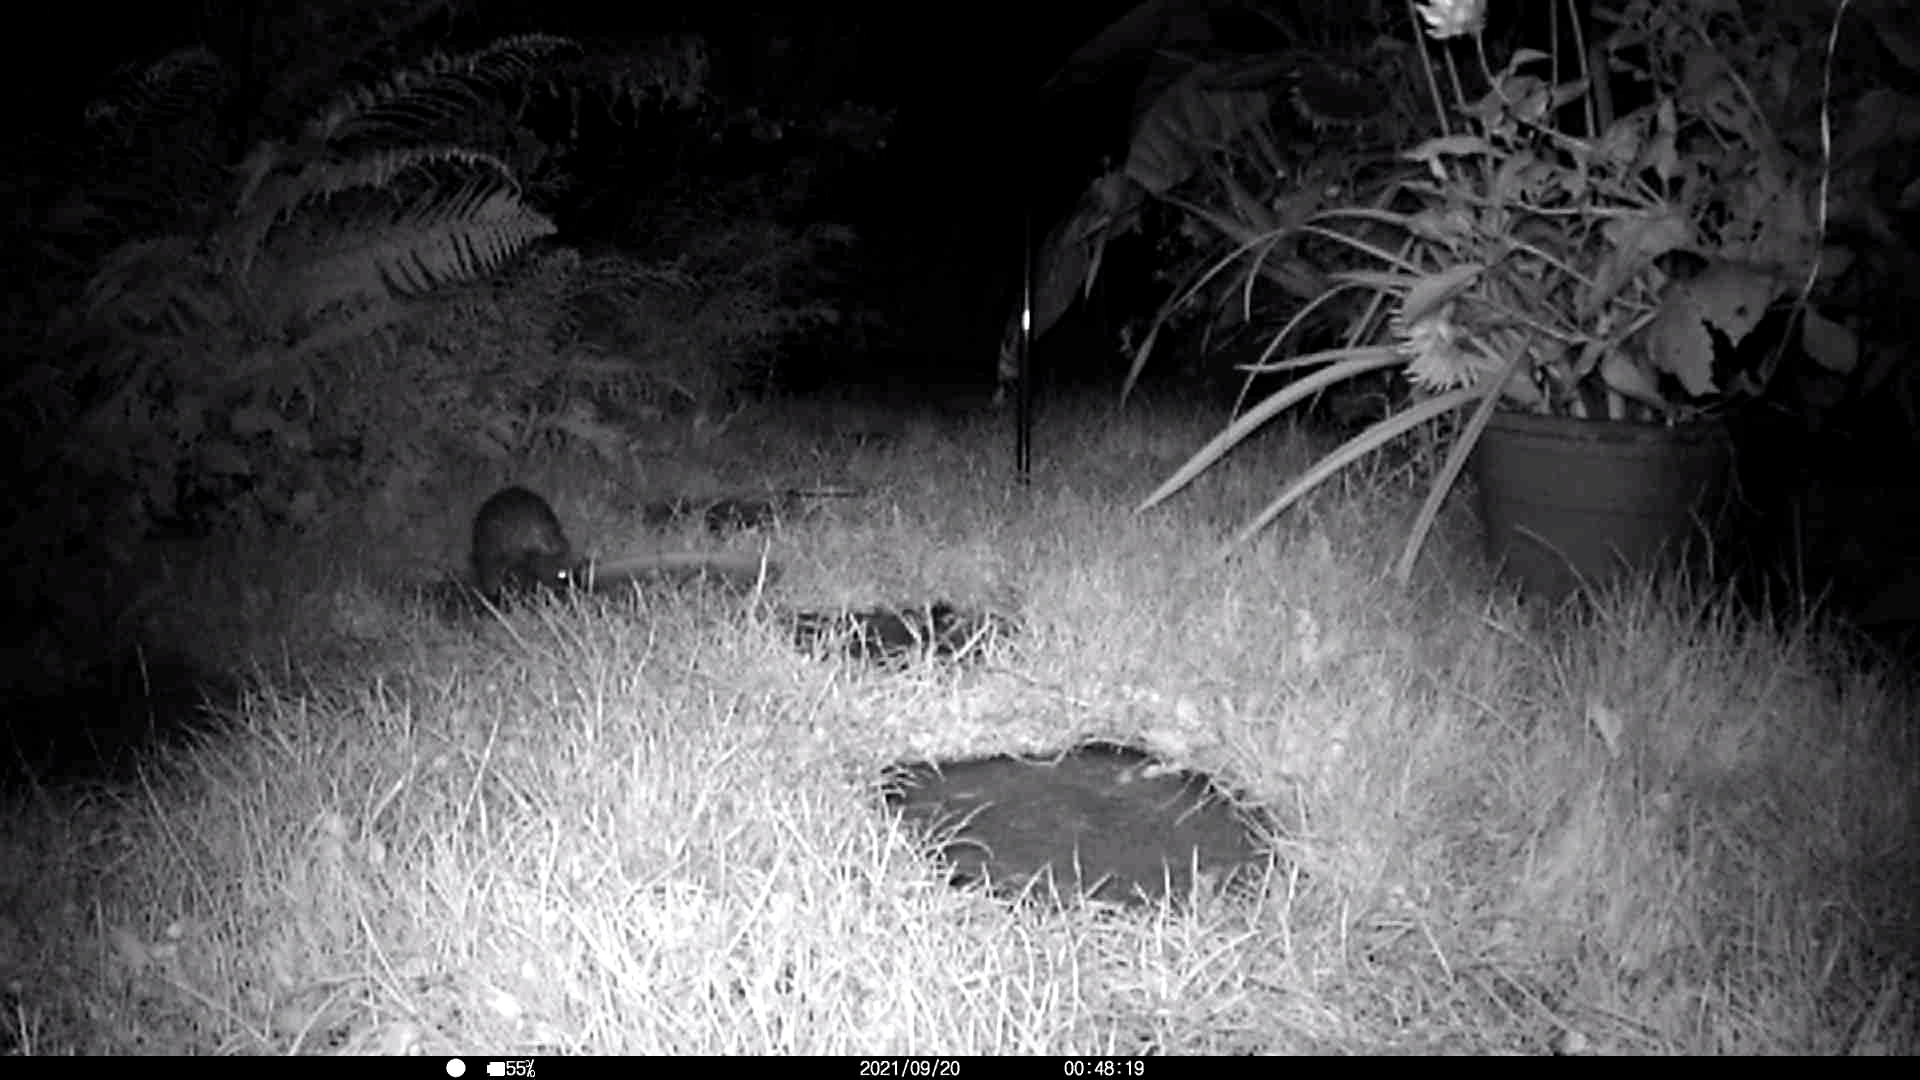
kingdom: Animalia
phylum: Chordata
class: Mammalia
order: Erinaceomorpha
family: Erinaceidae
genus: Erinaceus
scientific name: Erinaceus europaeus
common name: West european hedgehog
